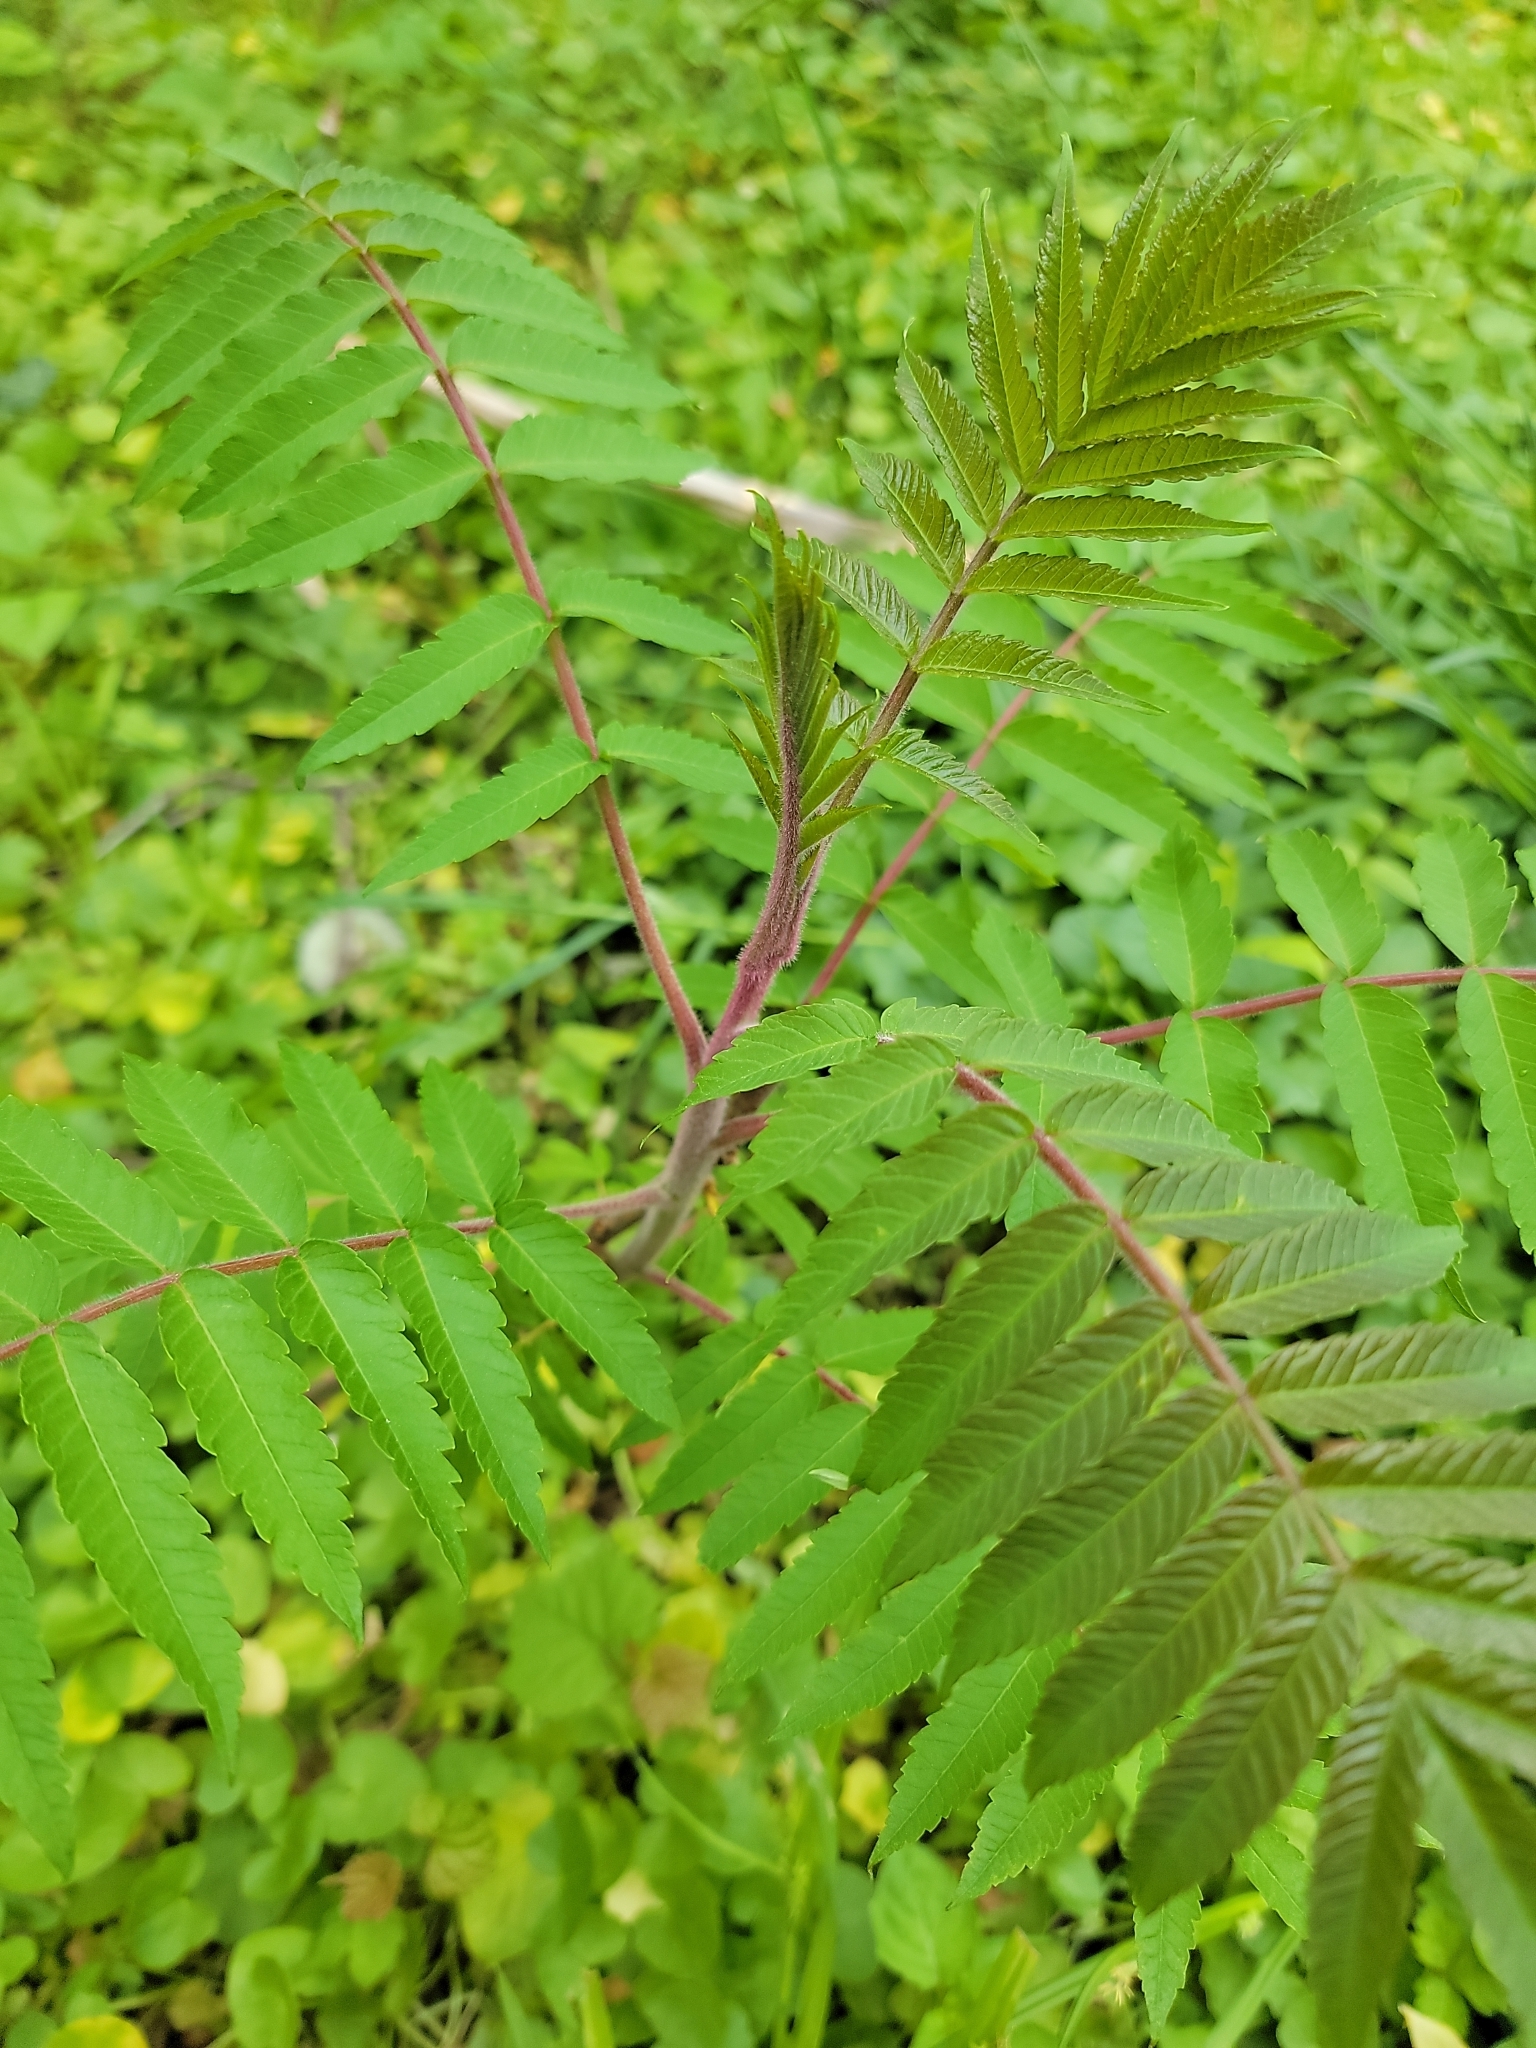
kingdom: Plantae
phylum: Tracheophyta
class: Magnoliopsida
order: Sapindales
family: Anacardiaceae
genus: Rhus
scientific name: Rhus typhina
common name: Staghorn sumac
